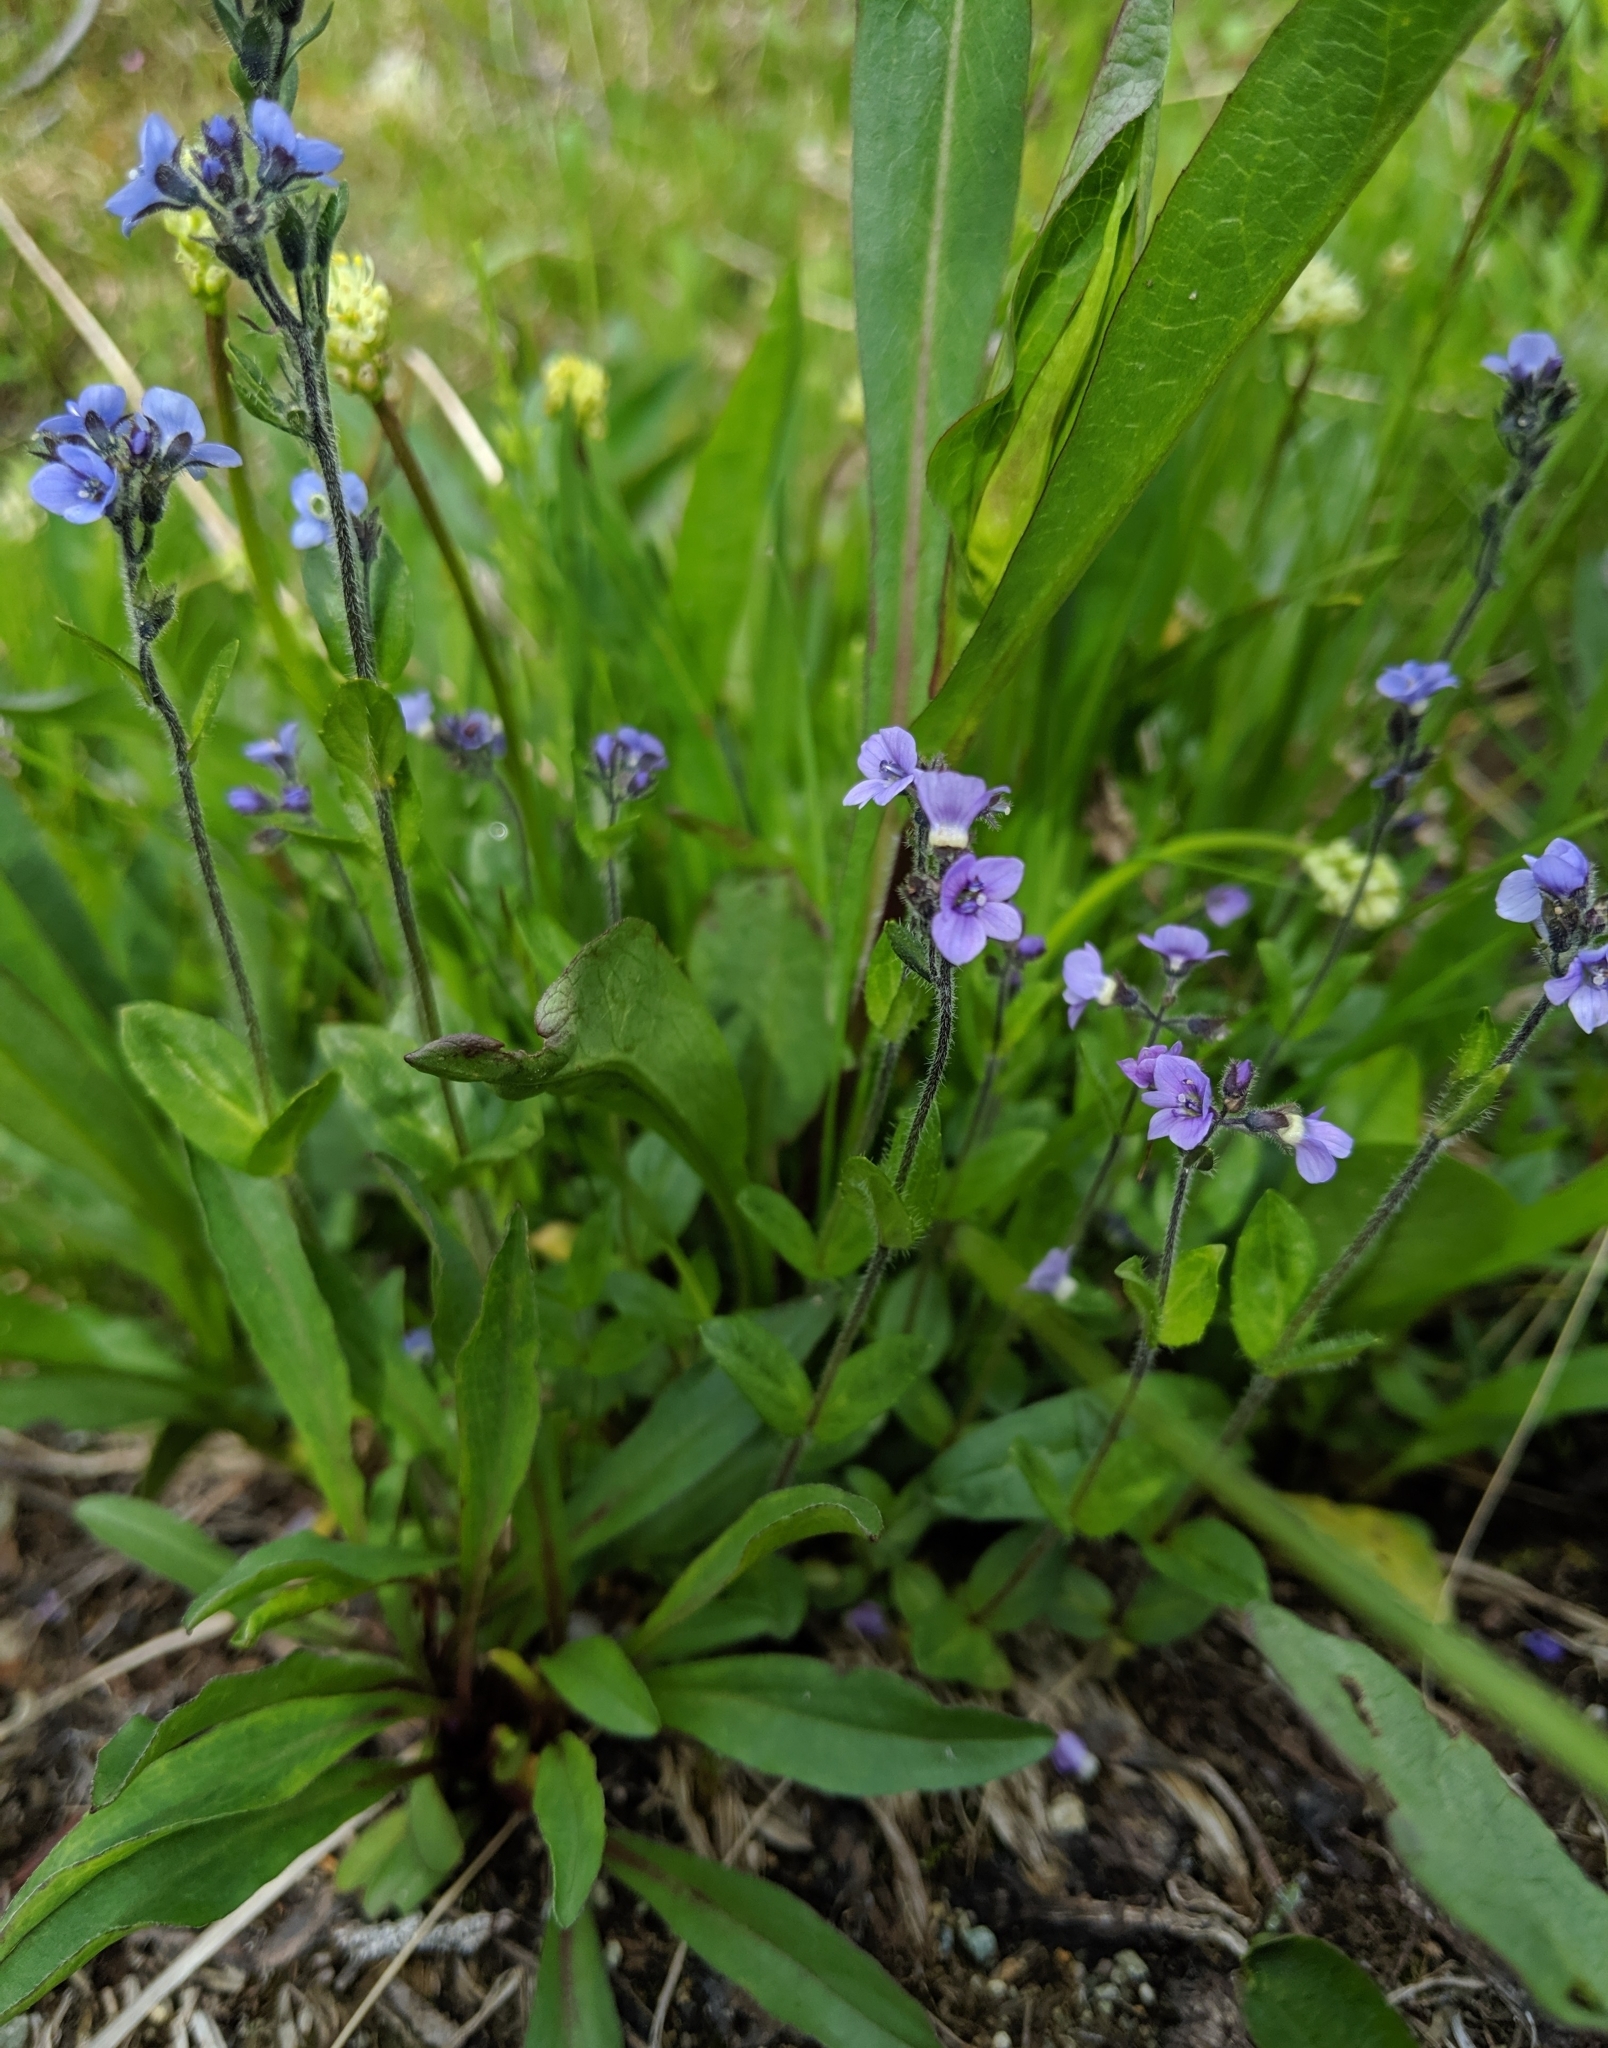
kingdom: Plantae
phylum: Tracheophyta
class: Magnoliopsida
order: Lamiales
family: Plantaginaceae
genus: Veronica
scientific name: Veronica wormskjoldii
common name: American alpine speedwell
